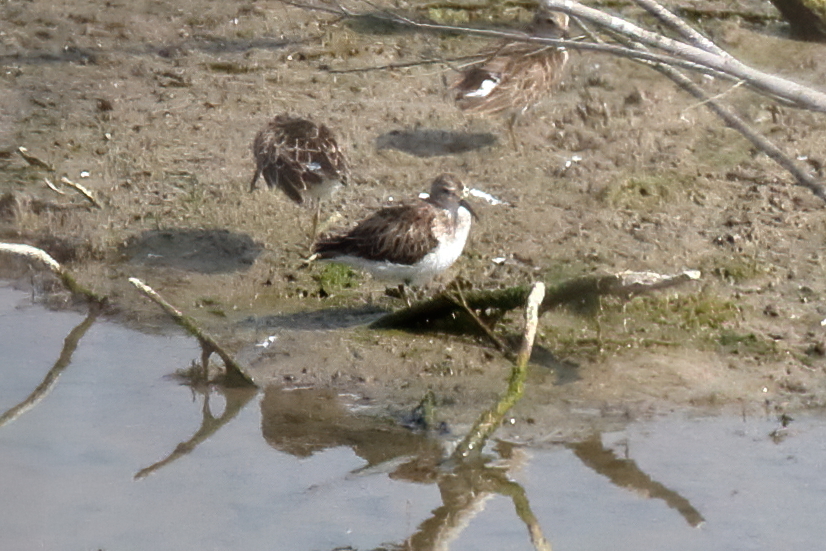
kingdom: Animalia
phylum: Chordata
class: Aves
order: Charadriiformes
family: Scolopacidae
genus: Calidris
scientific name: Calidris minutilla
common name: Least sandpiper
